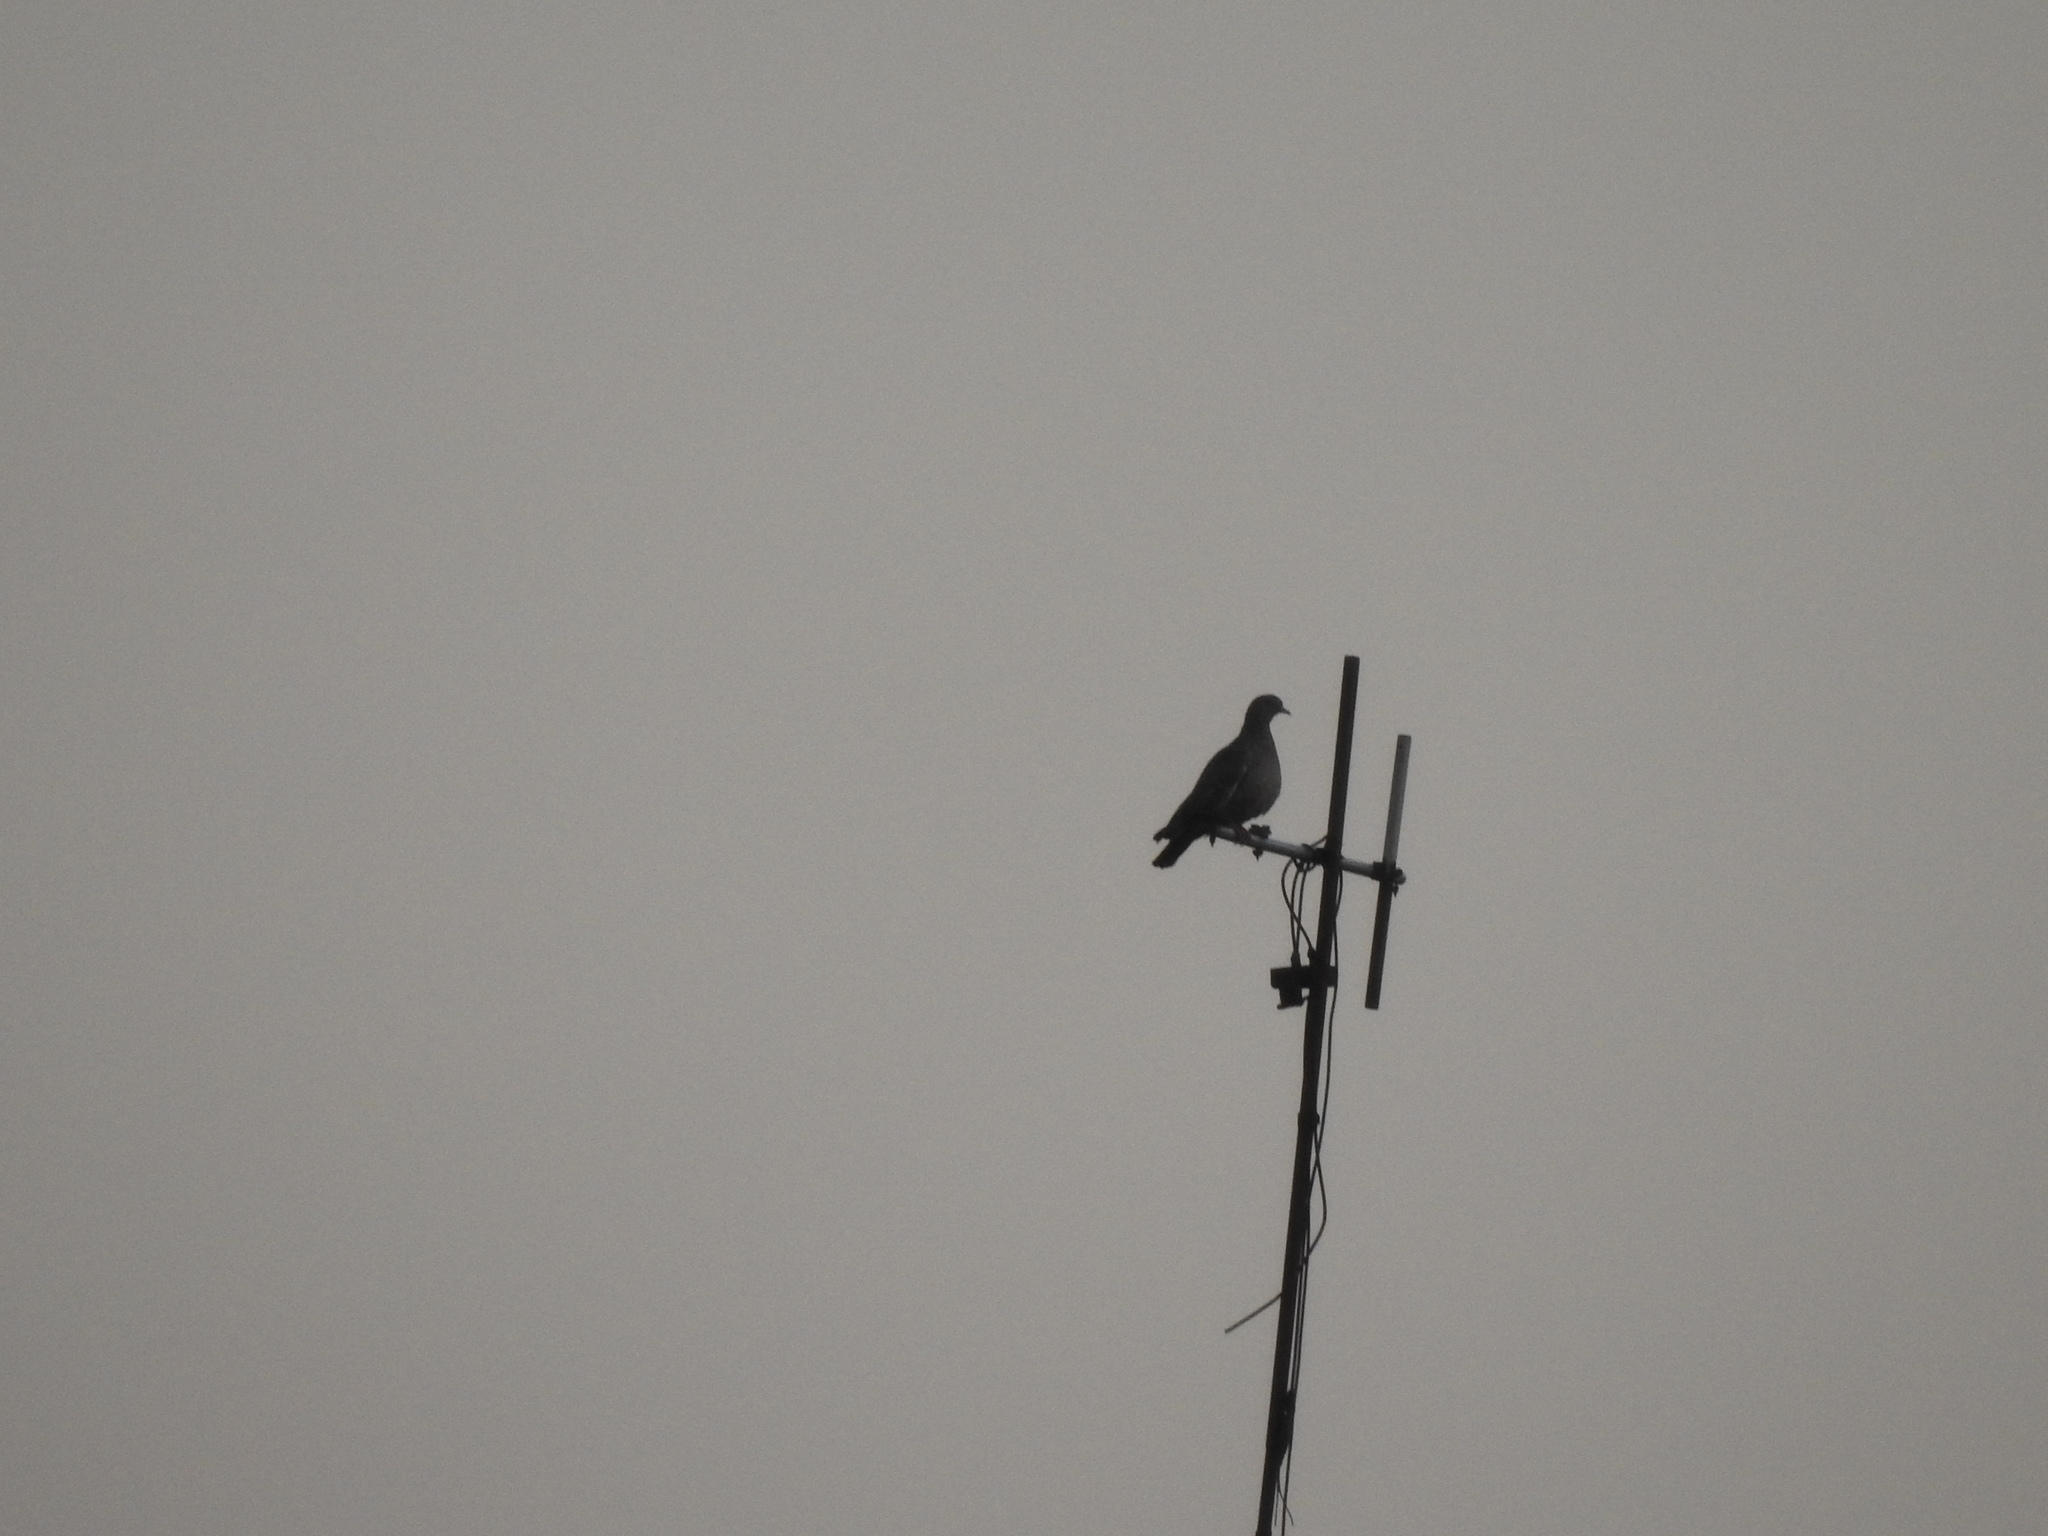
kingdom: Animalia
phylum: Chordata
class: Aves
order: Columbiformes
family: Columbidae
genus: Patagioenas
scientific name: Patagioenas picazuro
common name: Picazuro pigeon
